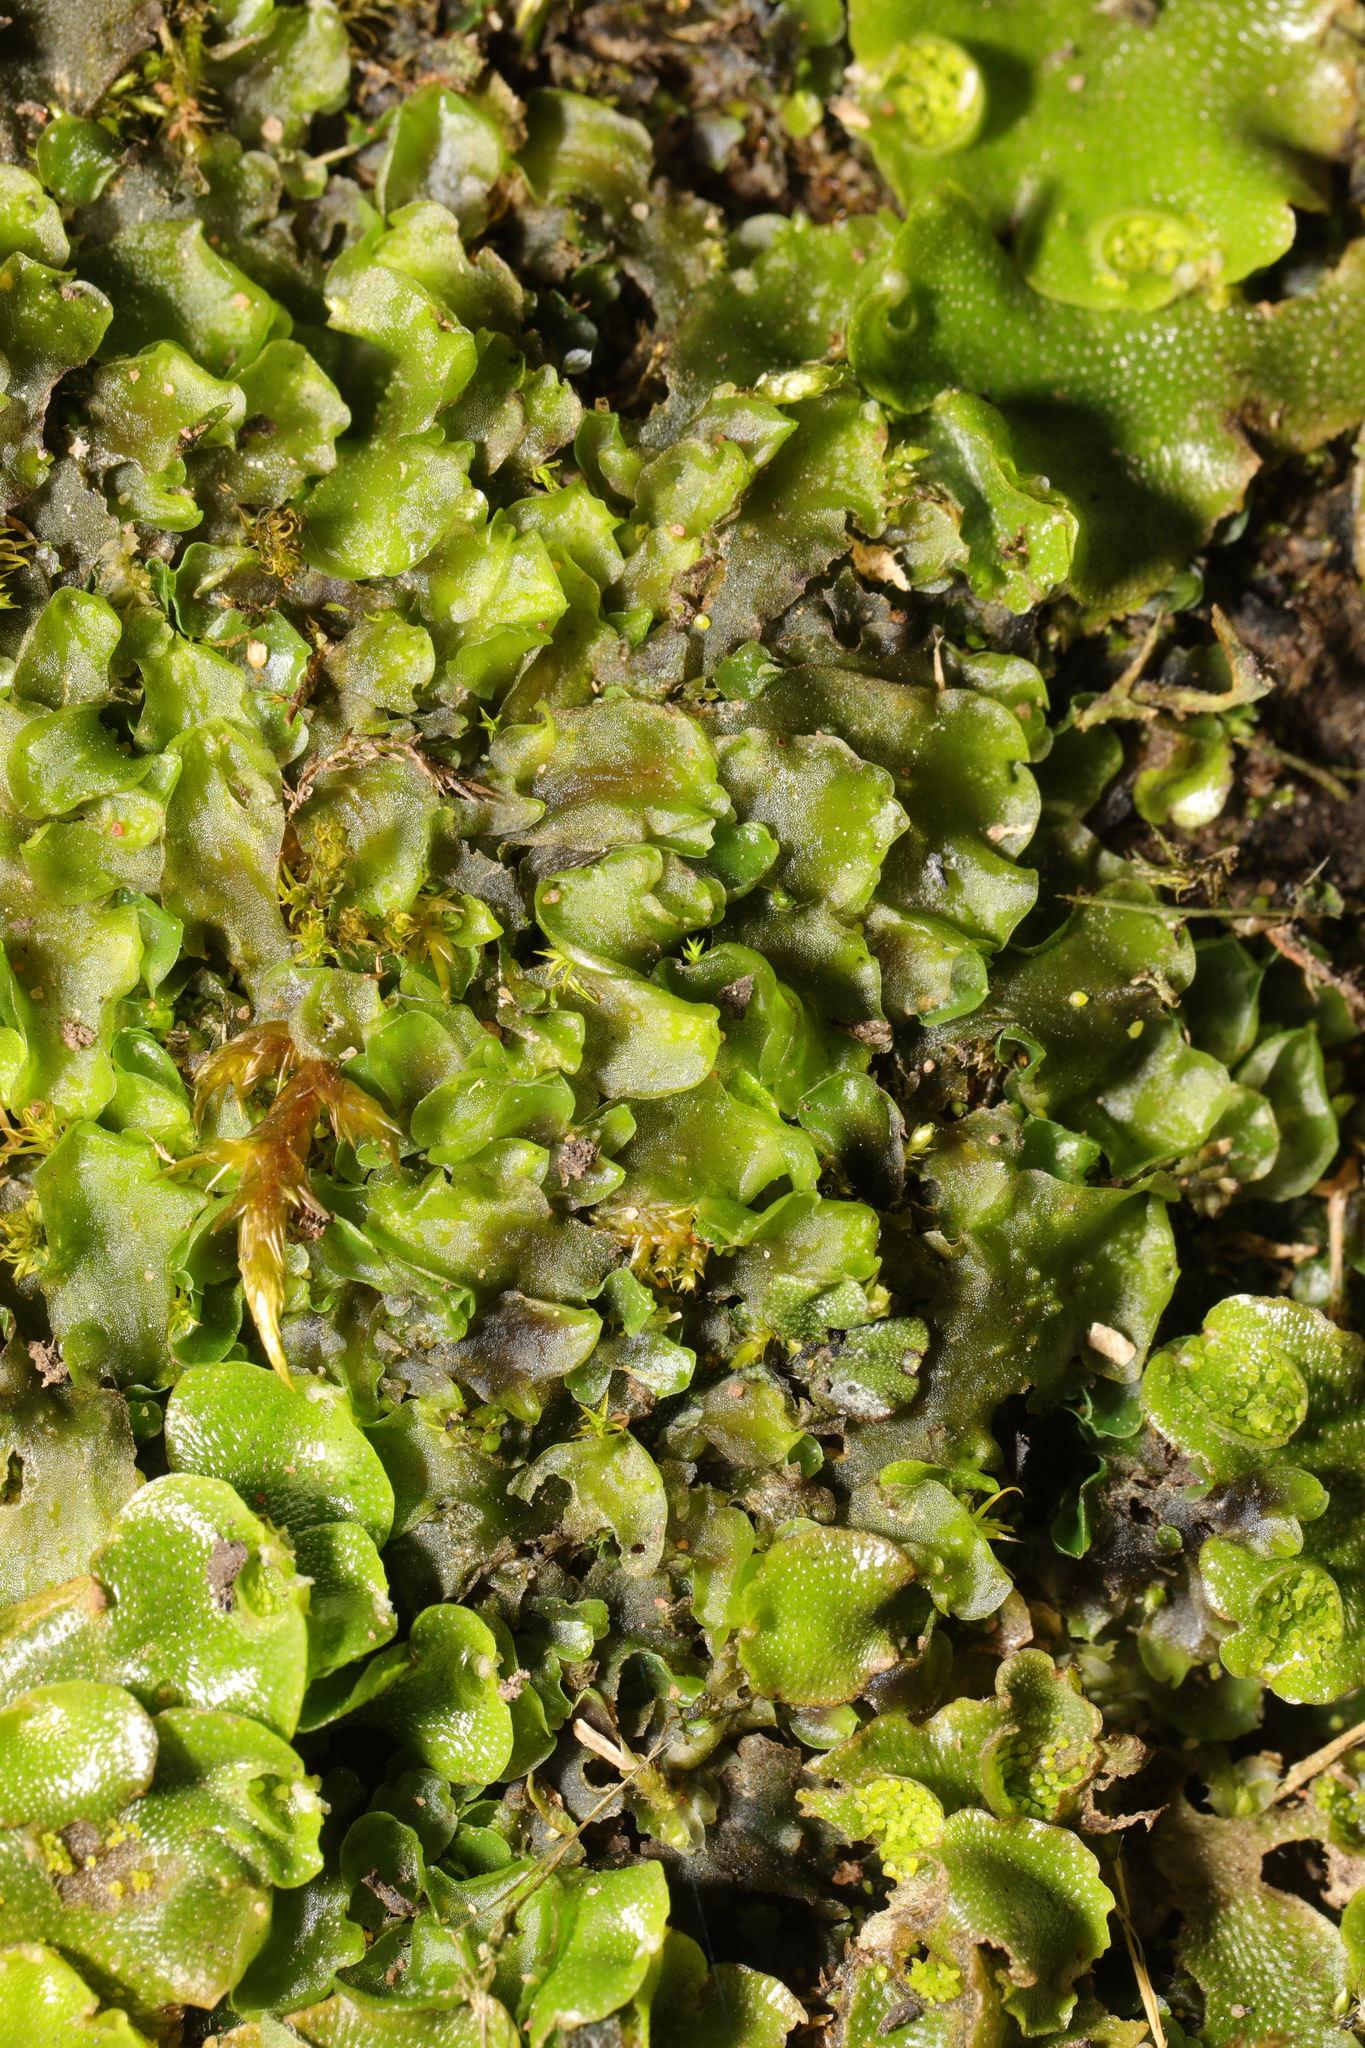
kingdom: Plantae
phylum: Marchantiophyta
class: Marchantiopsida
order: Lunulariales
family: Lunulariaceae
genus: Lunularia
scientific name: Lunularia cruciata
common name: Crescent-cup liverwort
